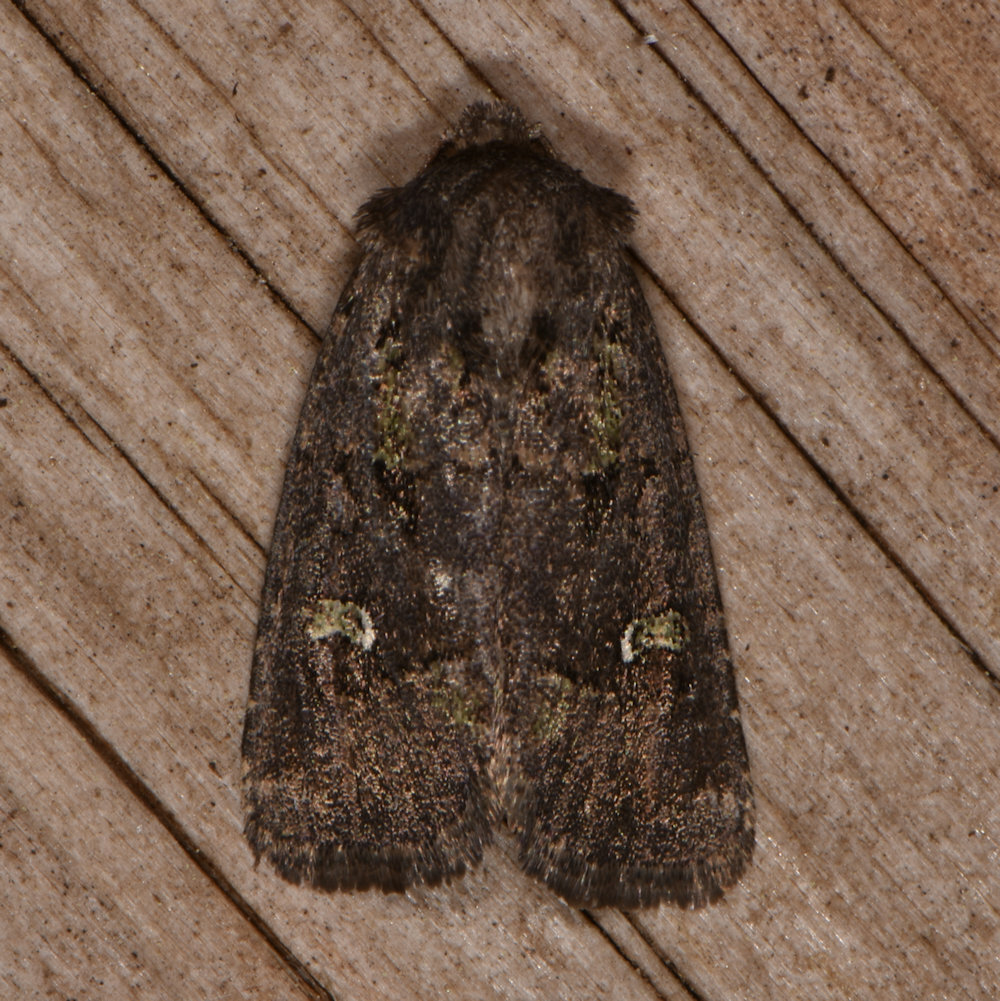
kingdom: Animalia
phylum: Arthropoda
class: Insecta
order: Lepidoptera
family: Noctuidae
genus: Lacinipolia
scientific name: Lacinipolia renigera
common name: Kidney-spotted minor
